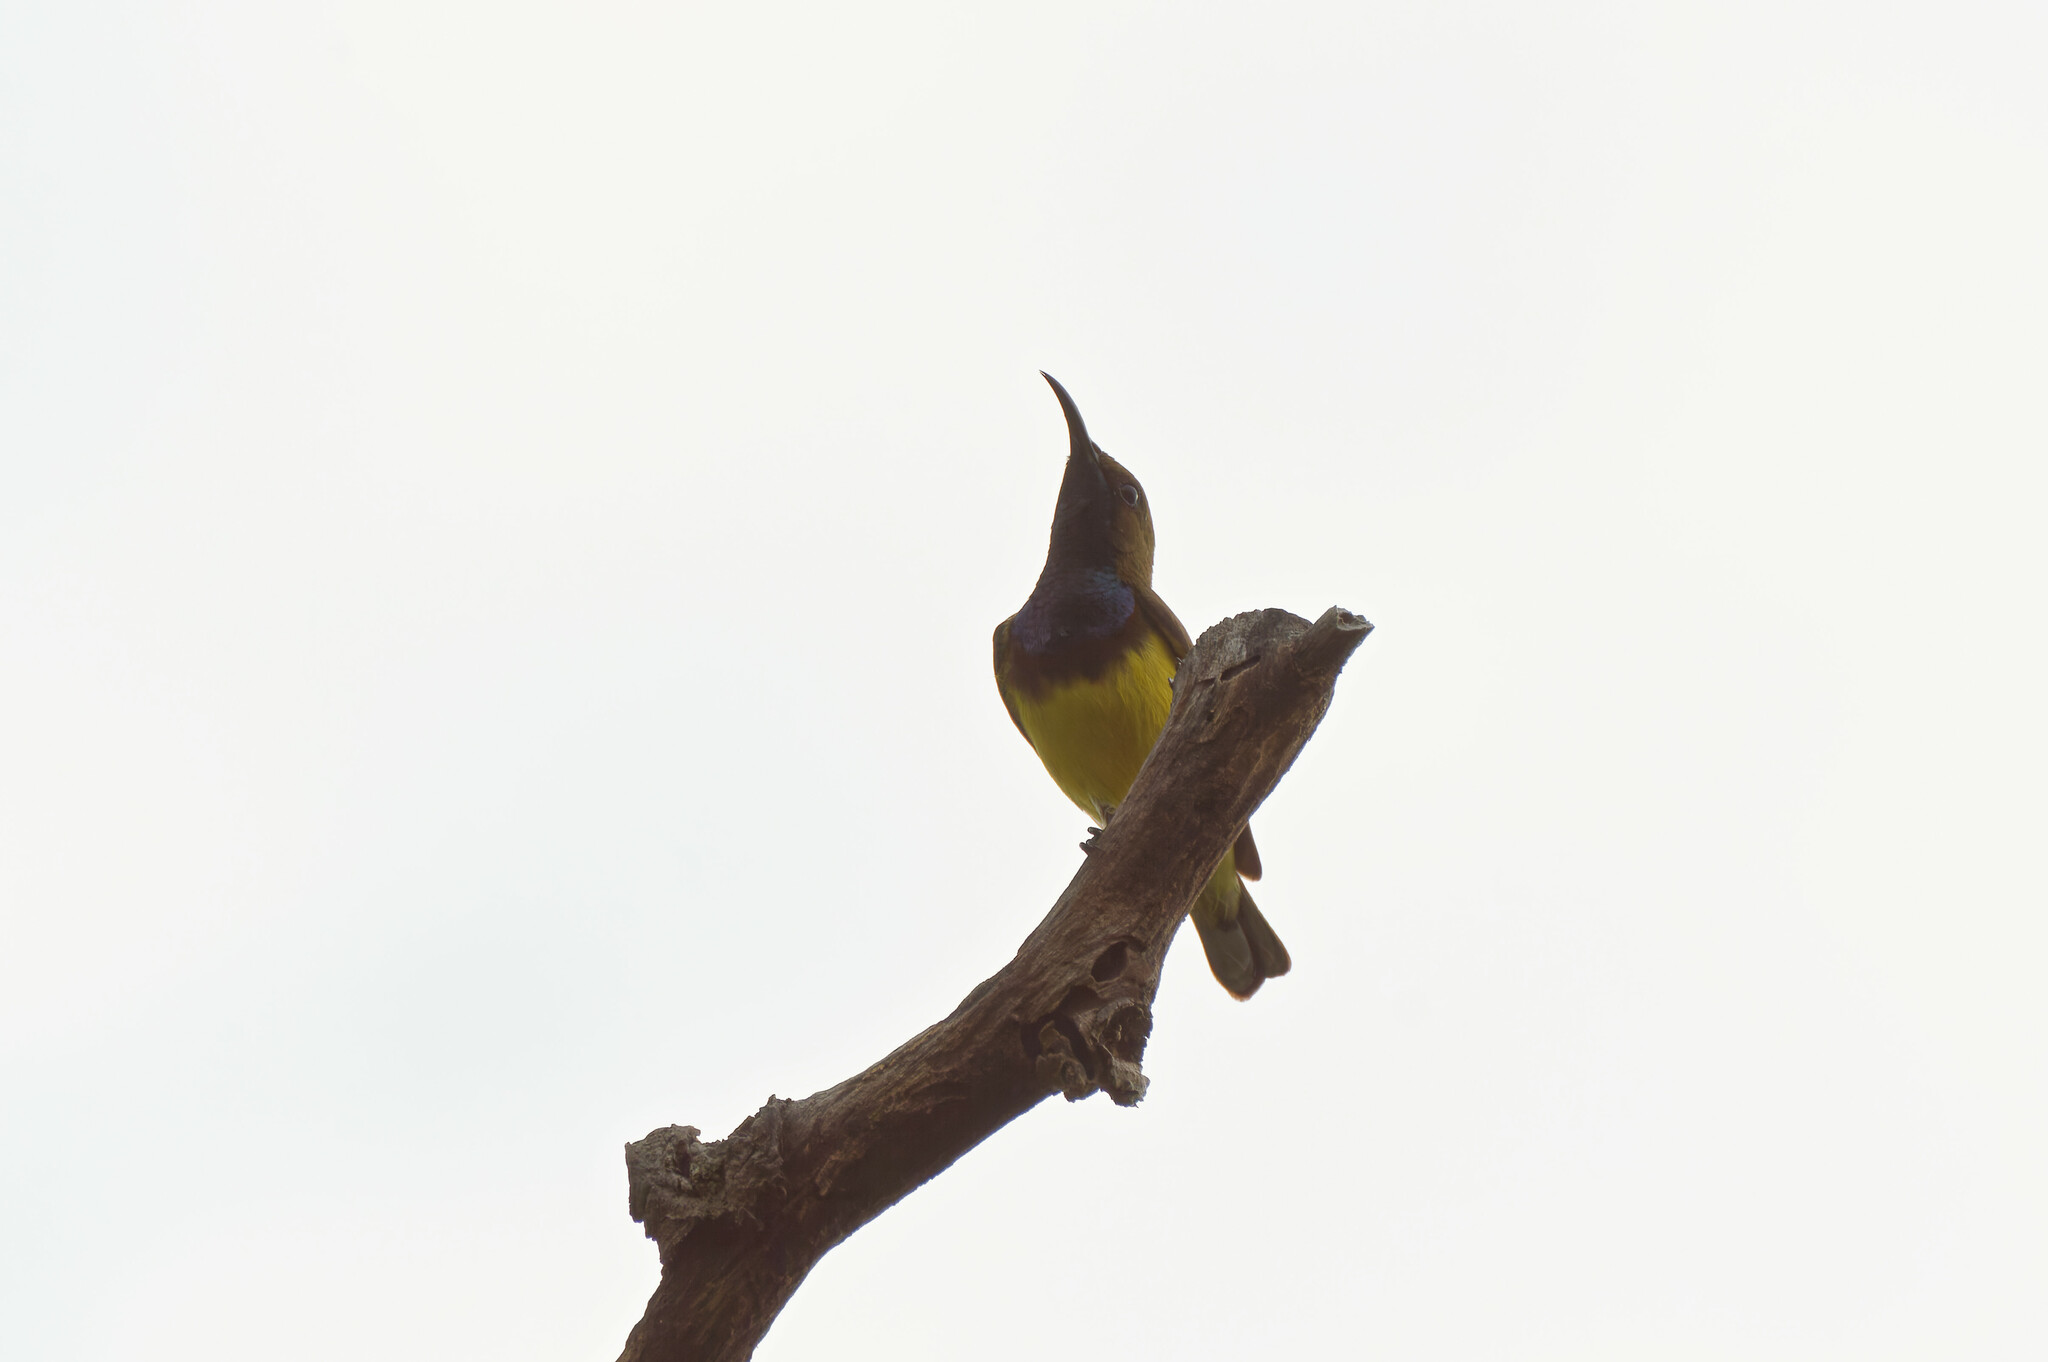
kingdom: Animalia
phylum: Chordata
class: Aves
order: Passeriformes
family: Nectariniidae
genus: Cinnyris
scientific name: Cinnyris
